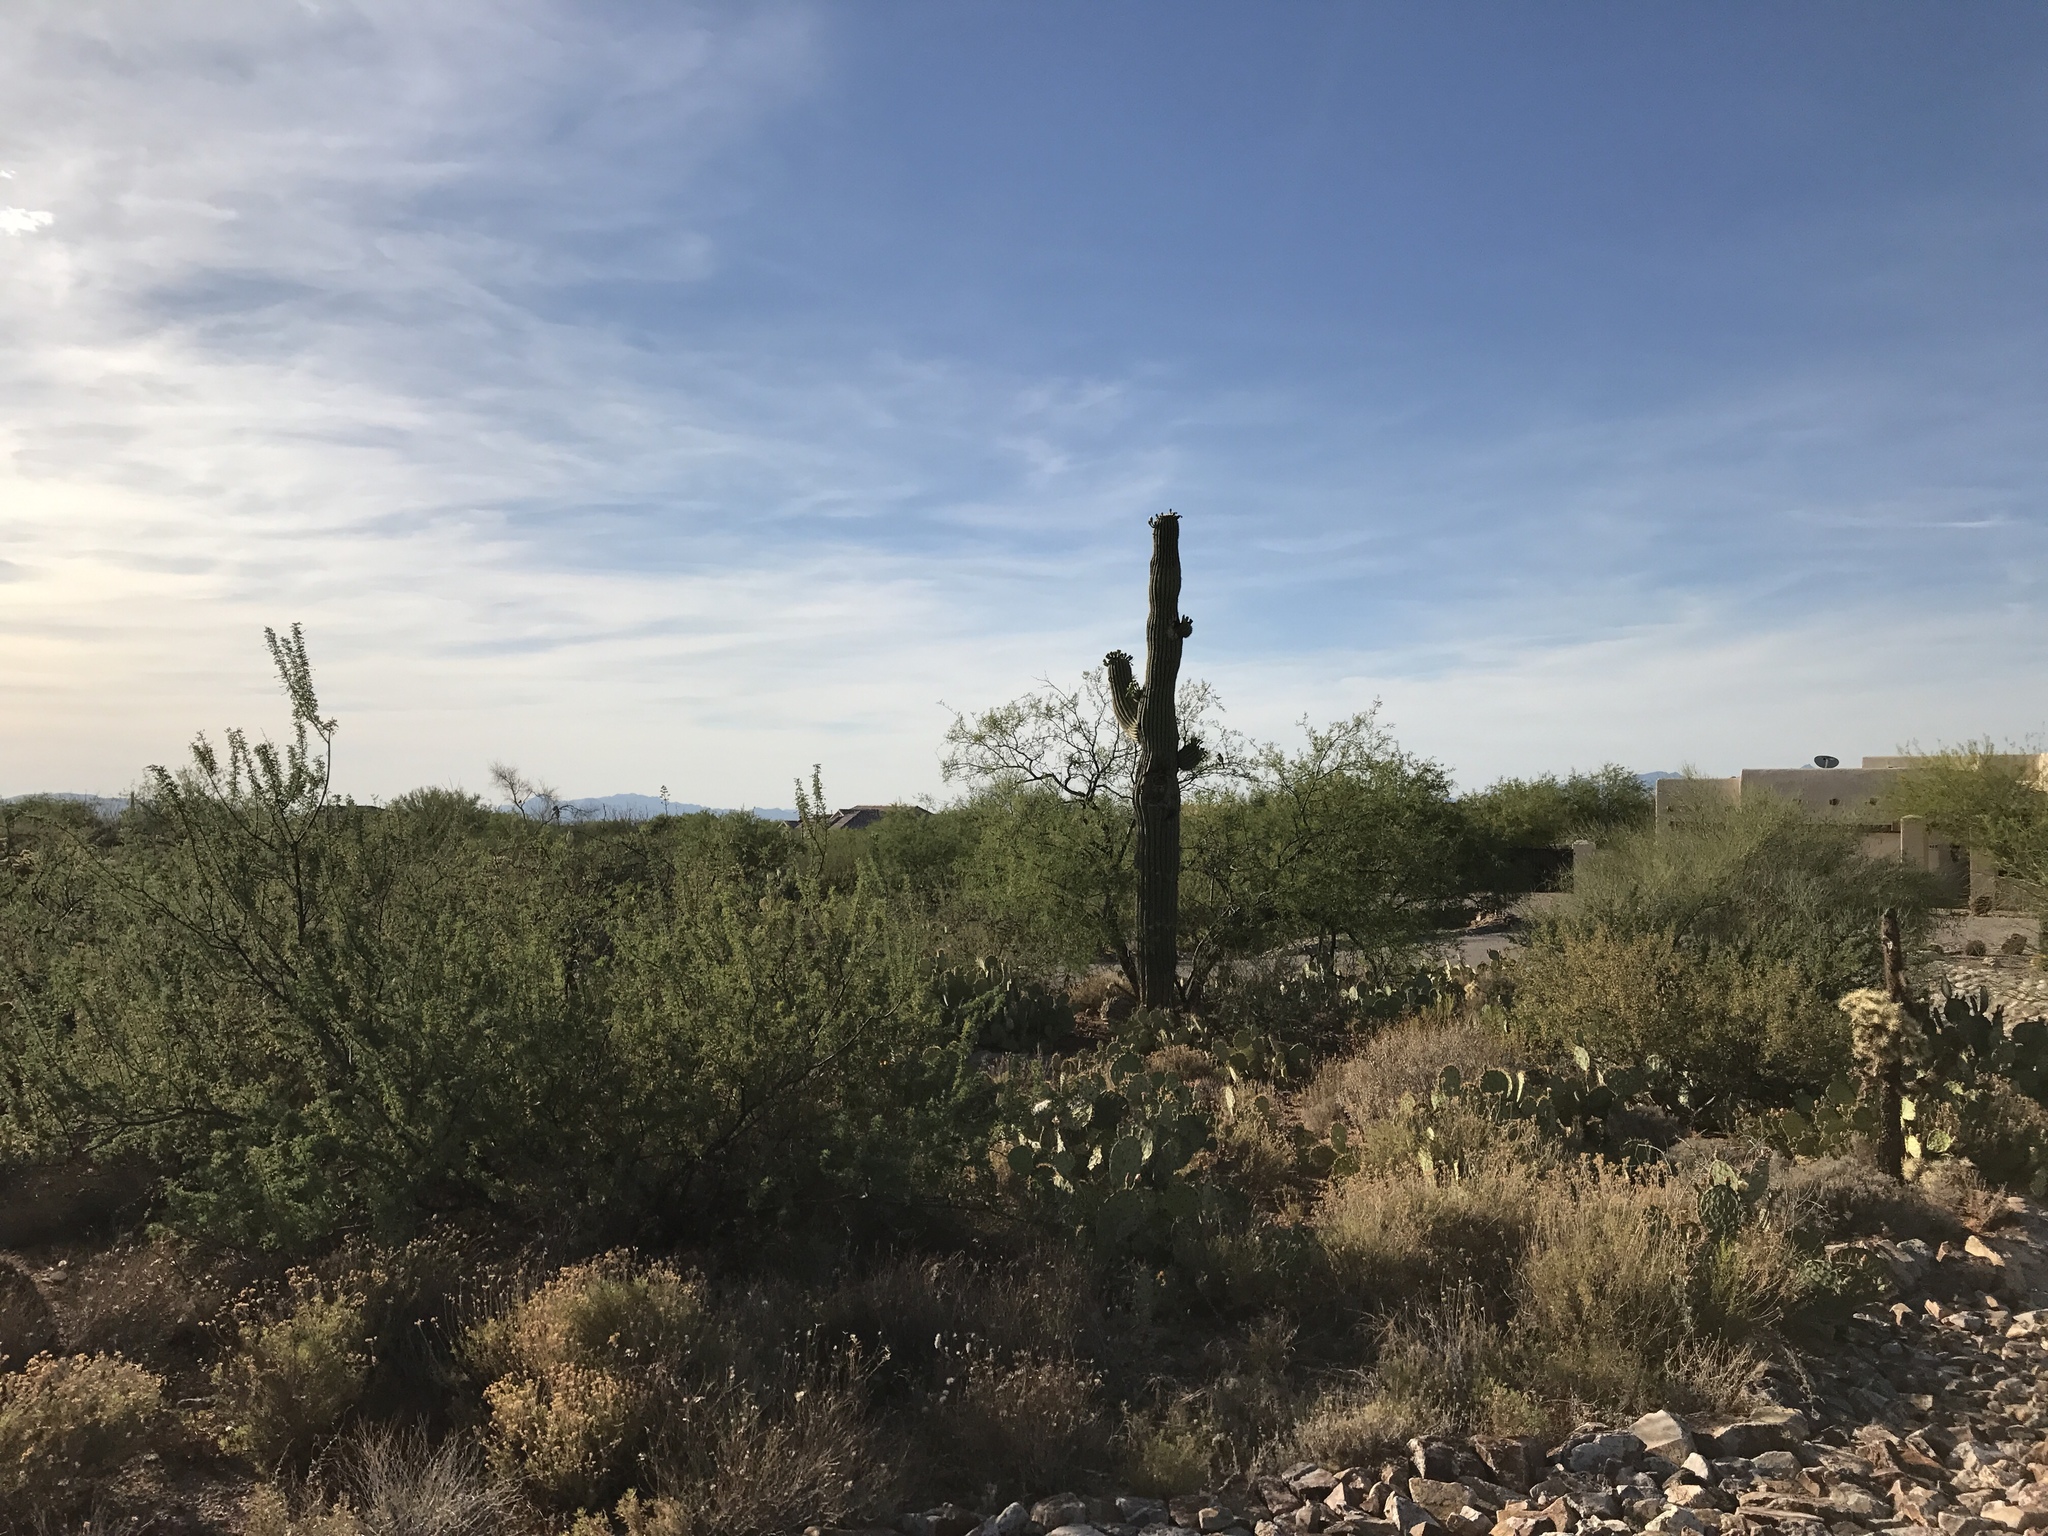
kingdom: Plantae
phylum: Tracheophyta
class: Magnoliopsida
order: Caryophyllales
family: Cactaceae
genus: Carnegiea
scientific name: Carnegiea gigantea
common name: Saguaro
